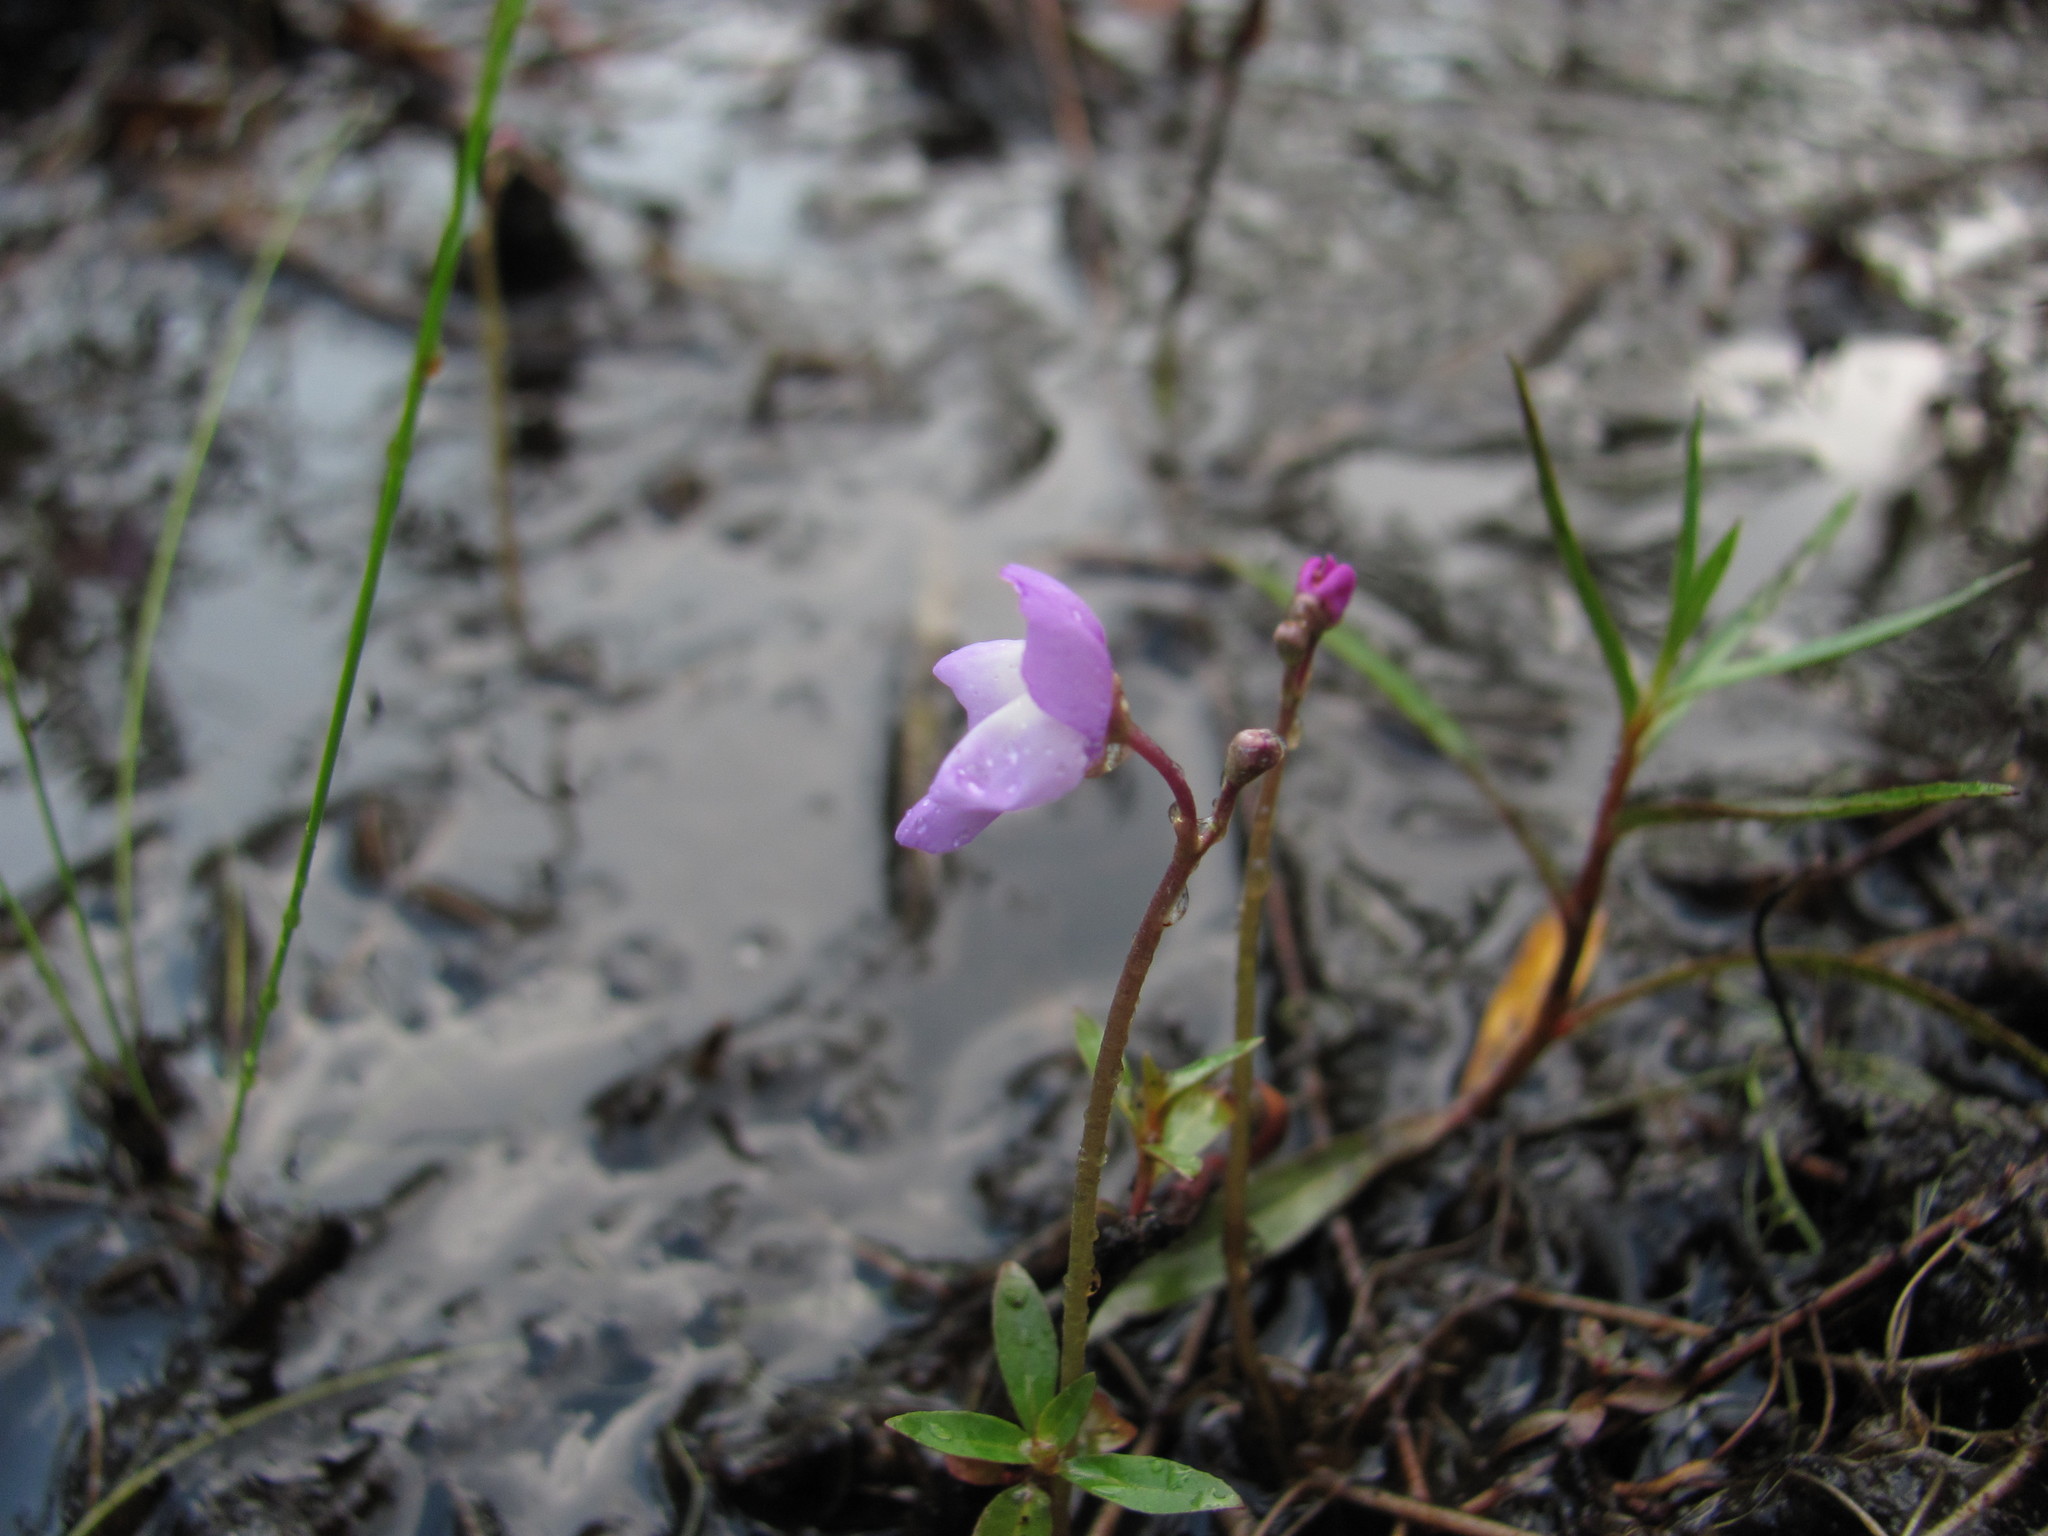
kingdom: Plantae
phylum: Tracheophyta
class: Magnoliopsida
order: Lamiales
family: Lentibulariaceae
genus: Utricularia
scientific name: Utricularia purpurea
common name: Eastern purple bladderwort
